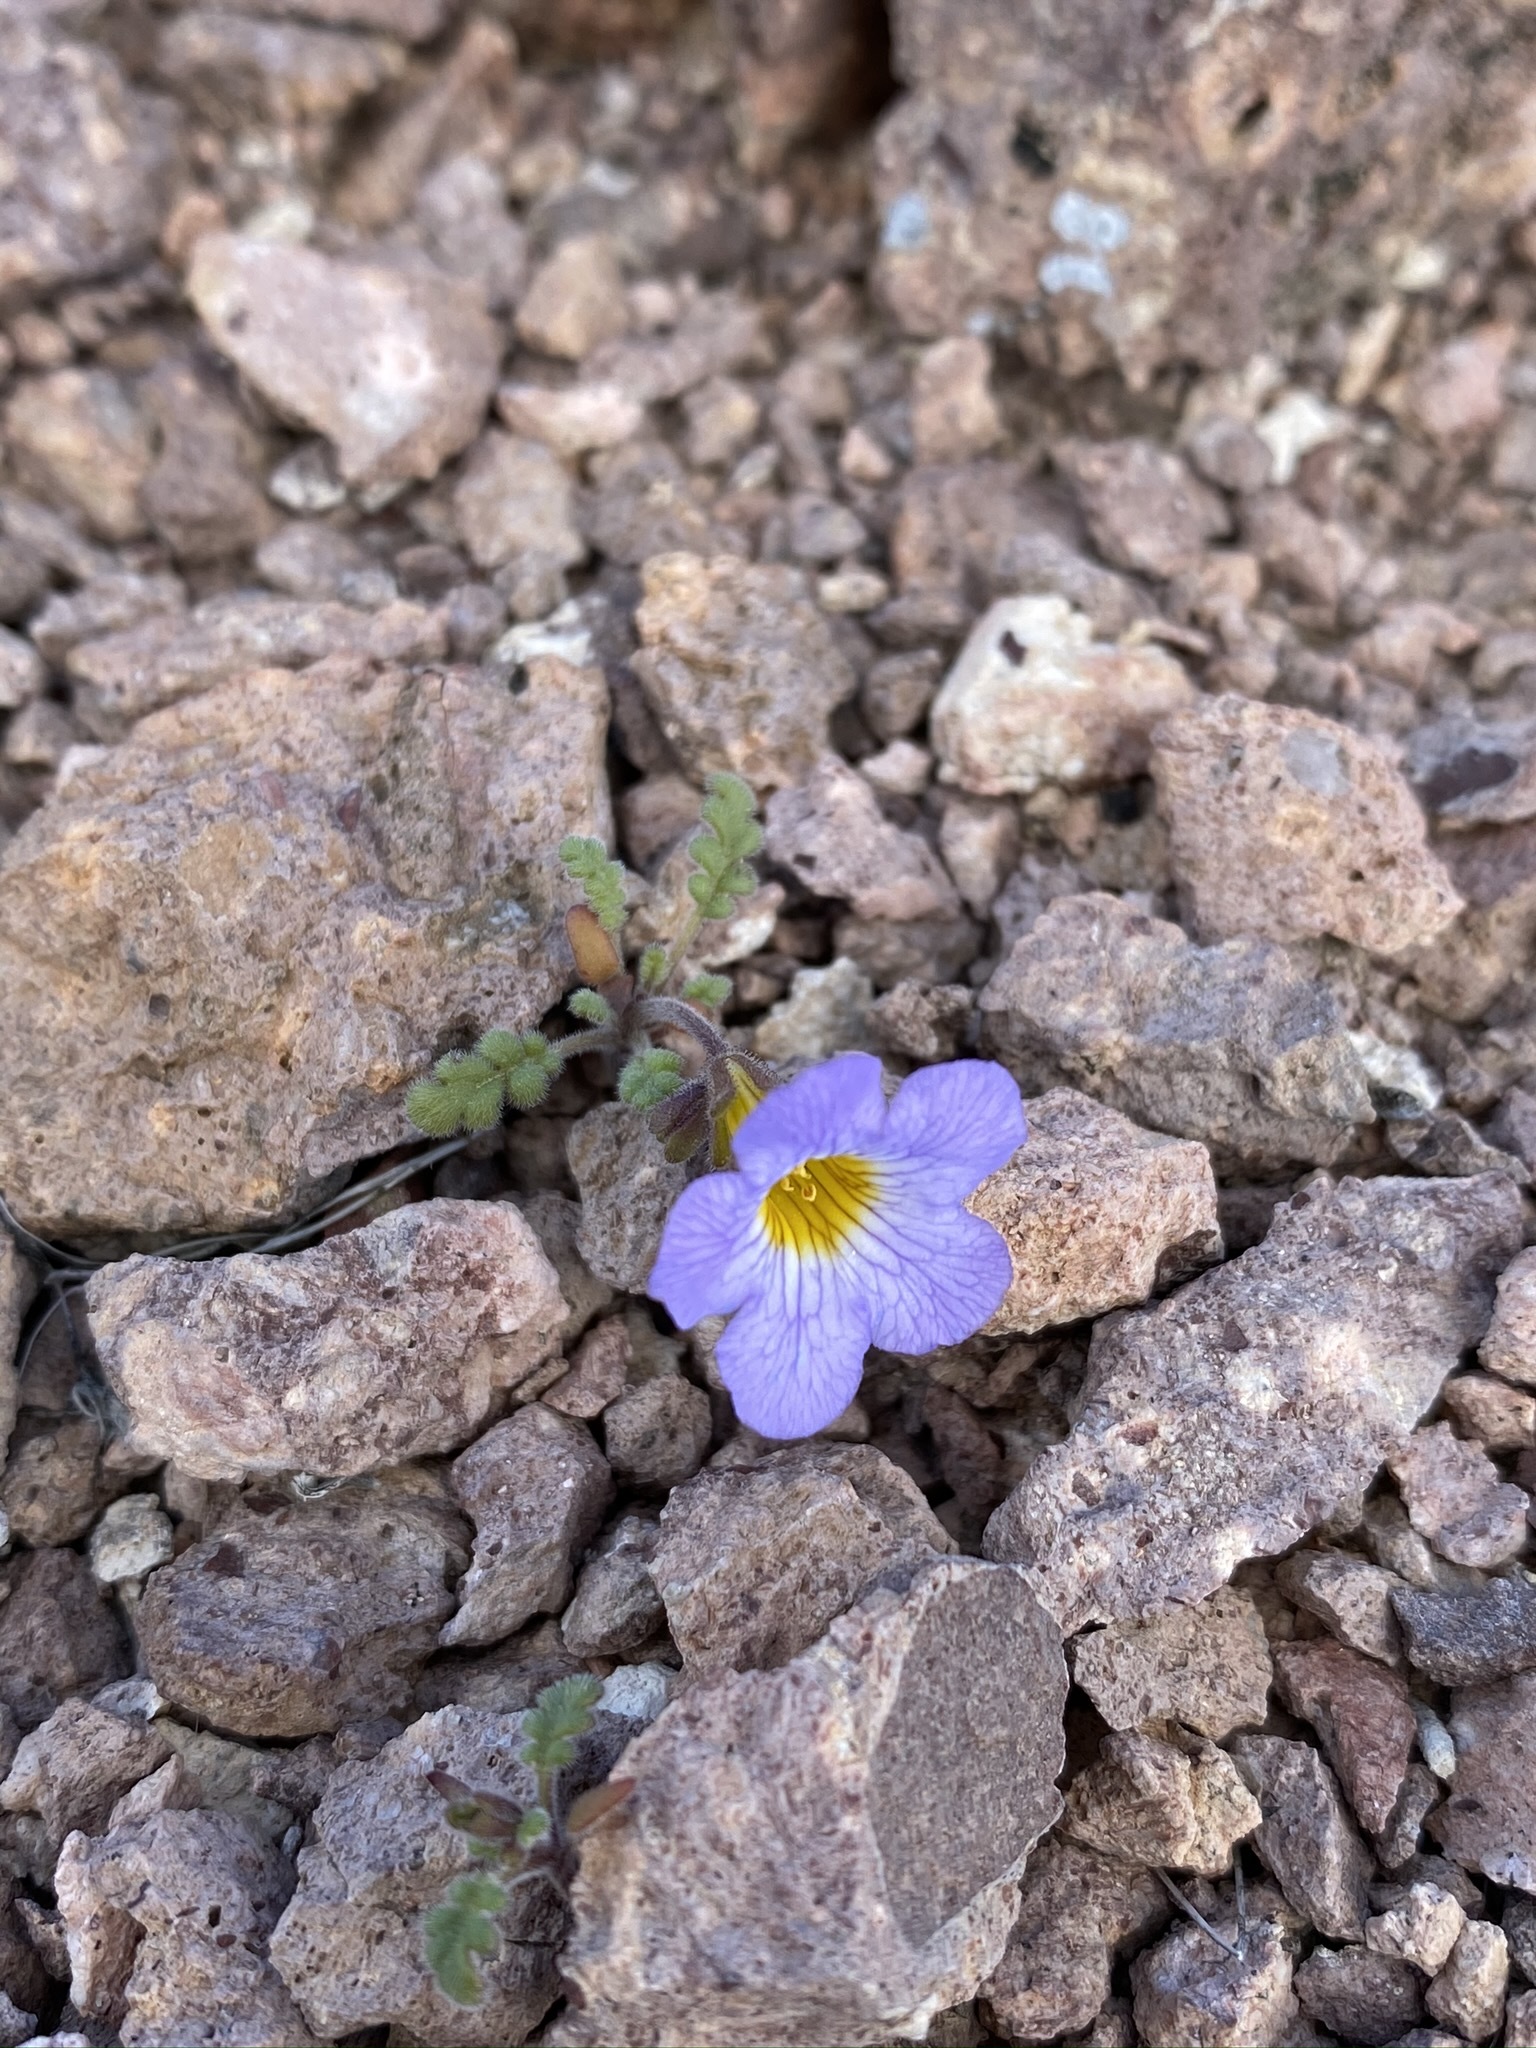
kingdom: Plantae
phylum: Tracheophyta
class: Magnoliopsida
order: Boraginales
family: Hydrophyllaceae
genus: Phacelia
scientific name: Phacelia fremontii
